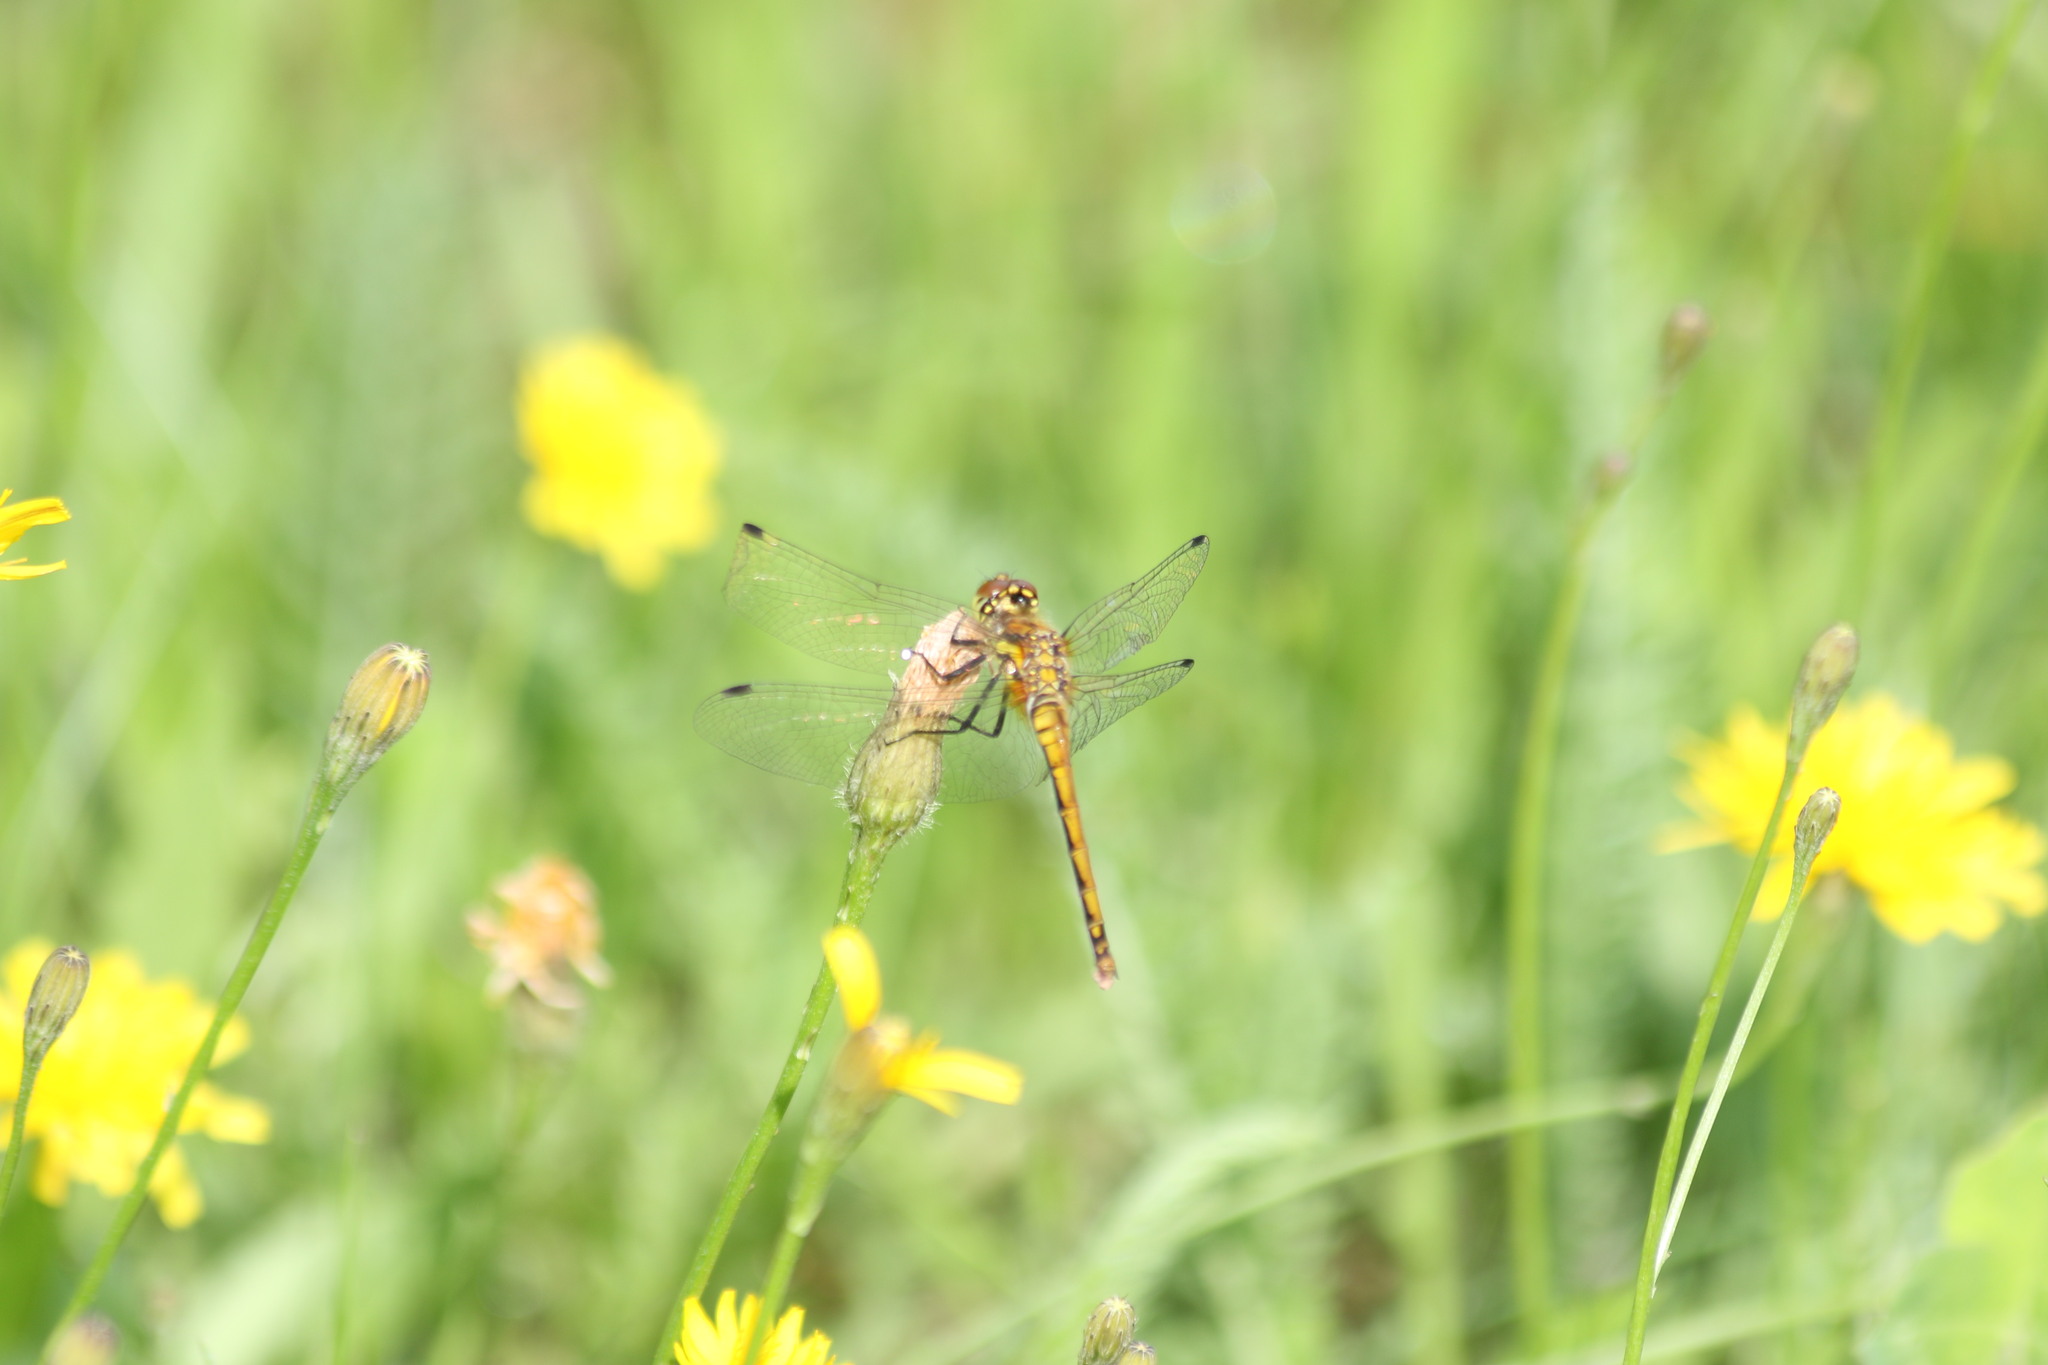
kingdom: Animalia
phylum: Arthropoda
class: Insecta
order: Odonata
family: Libellulidae
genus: Sympetrum
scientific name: Sympetrum danae
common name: Black darter
